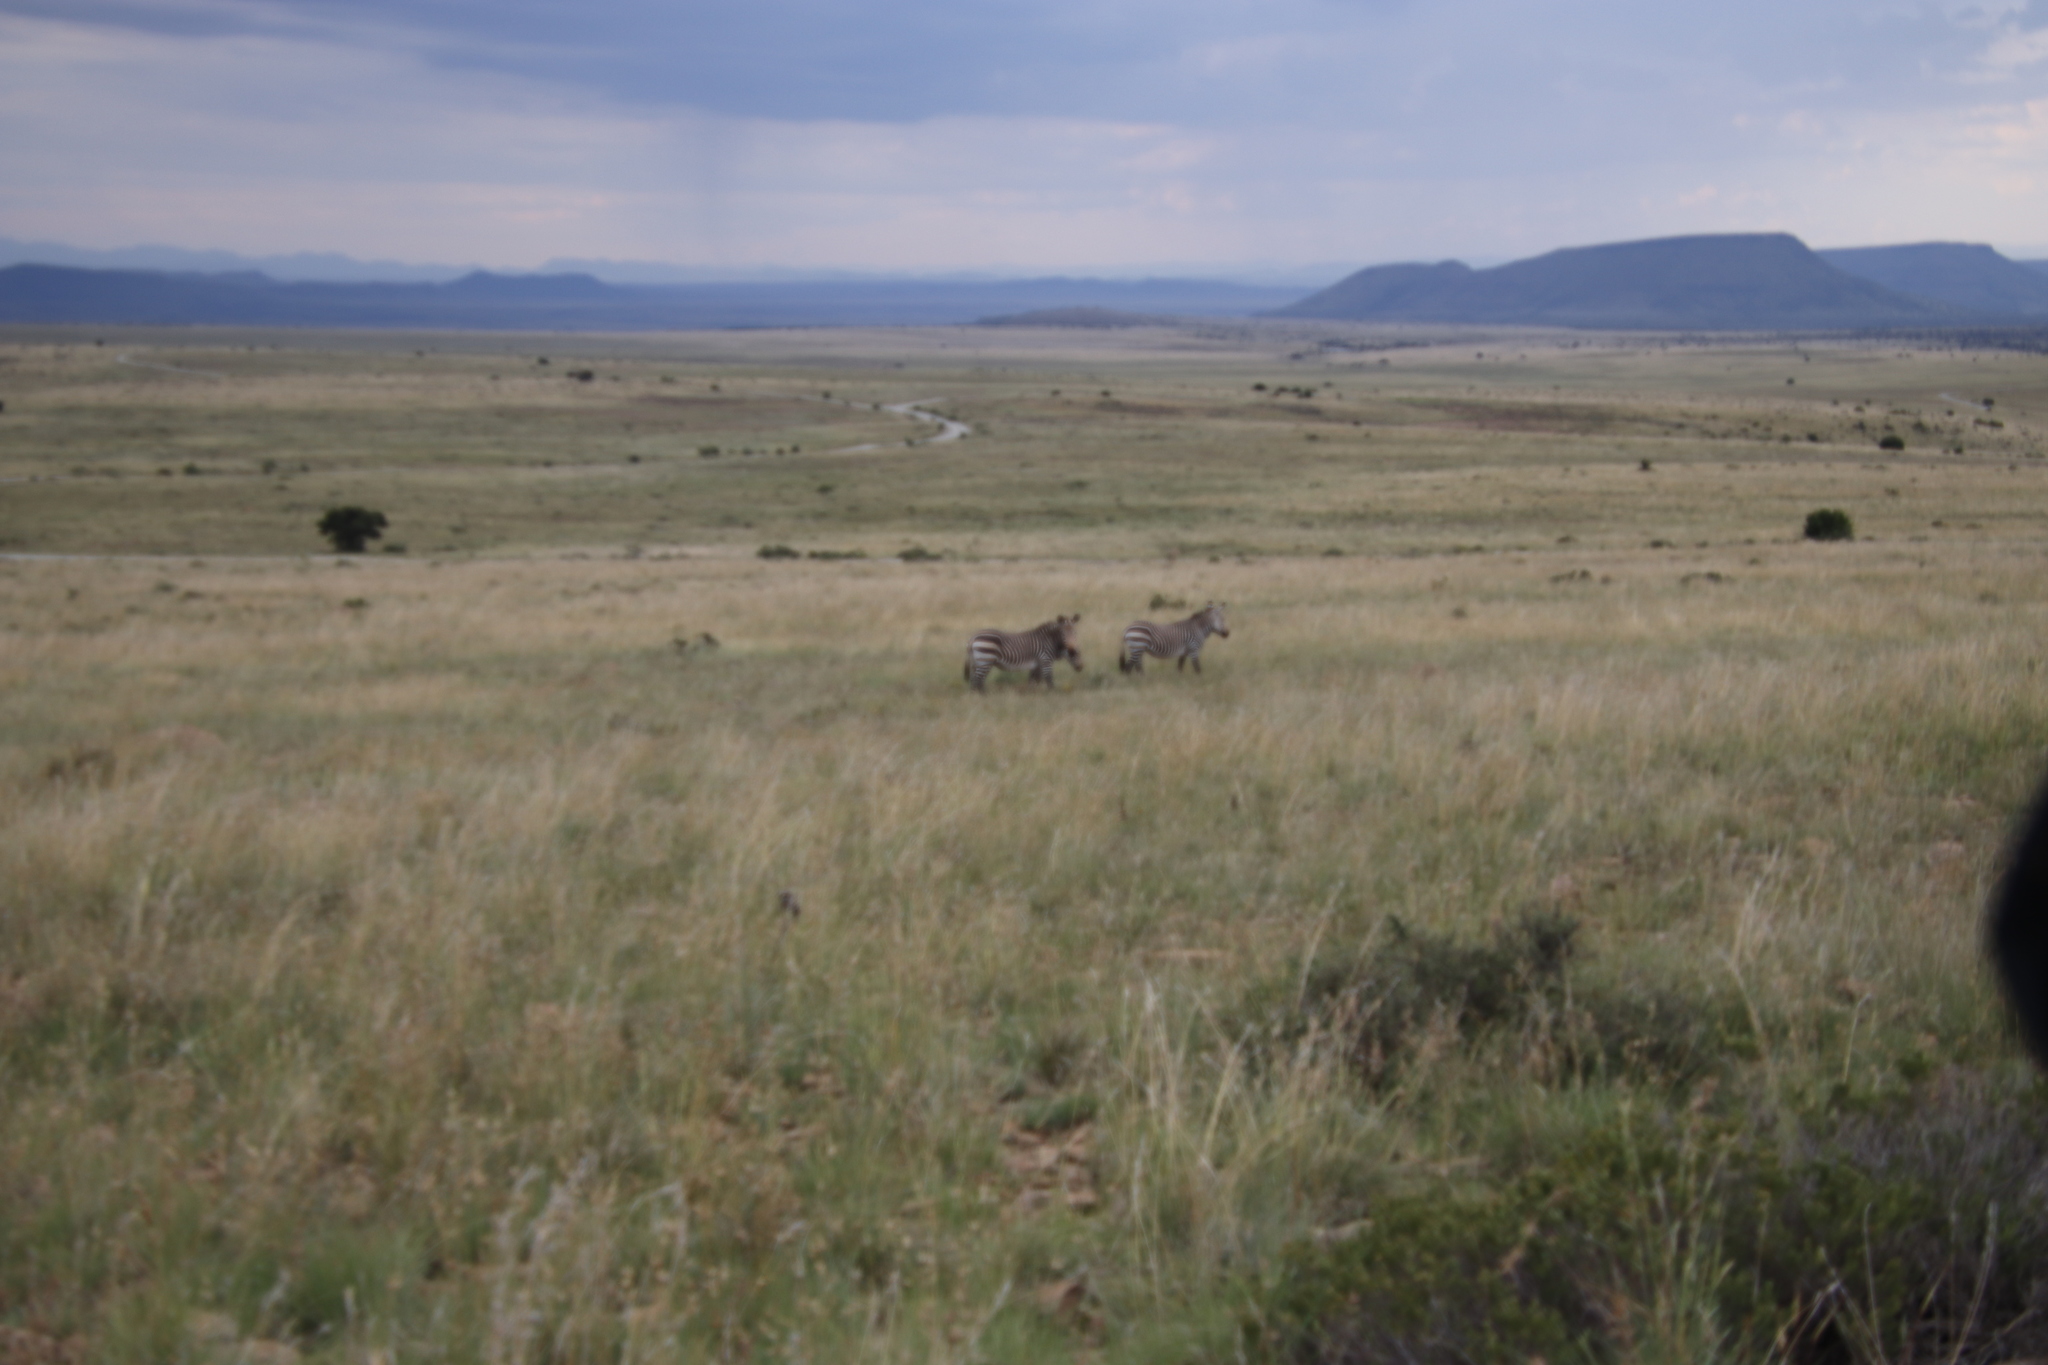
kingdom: Animalia
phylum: Chordata
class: Mammalia
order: Perissodactyla
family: Equidae
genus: Equus
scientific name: Equus zebra
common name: Mountain zebra
